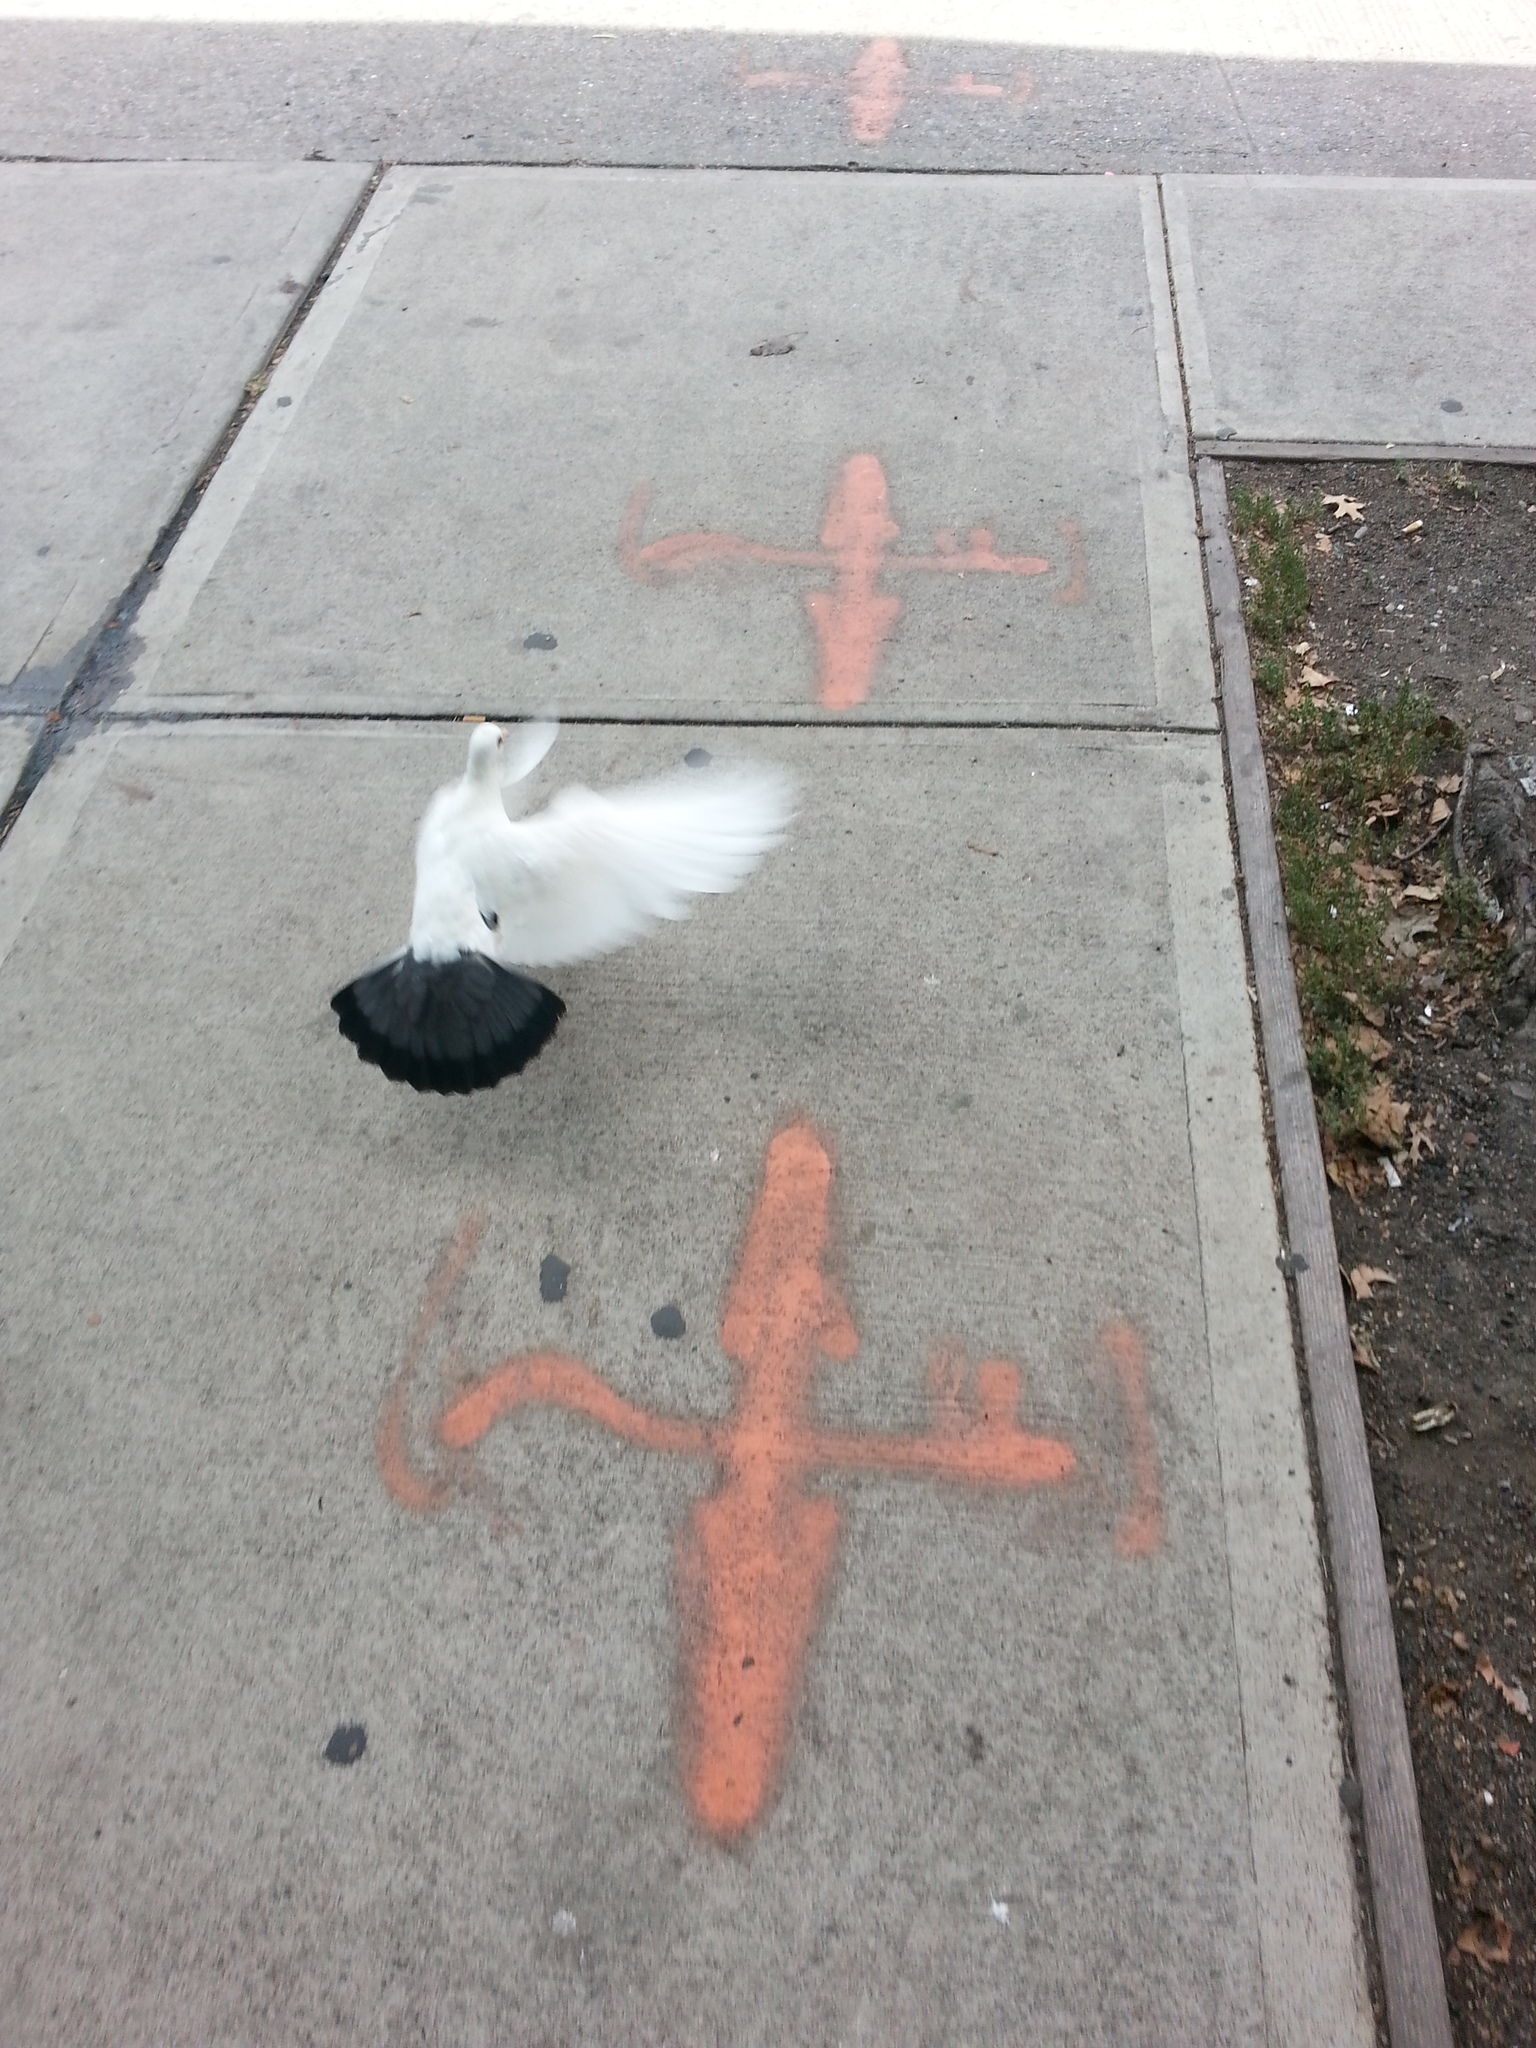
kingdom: Animalia
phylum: Chordata
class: Aves
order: Columbiformes
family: Columbidae
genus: Columba
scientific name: Columba livia
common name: Rock pigeon
